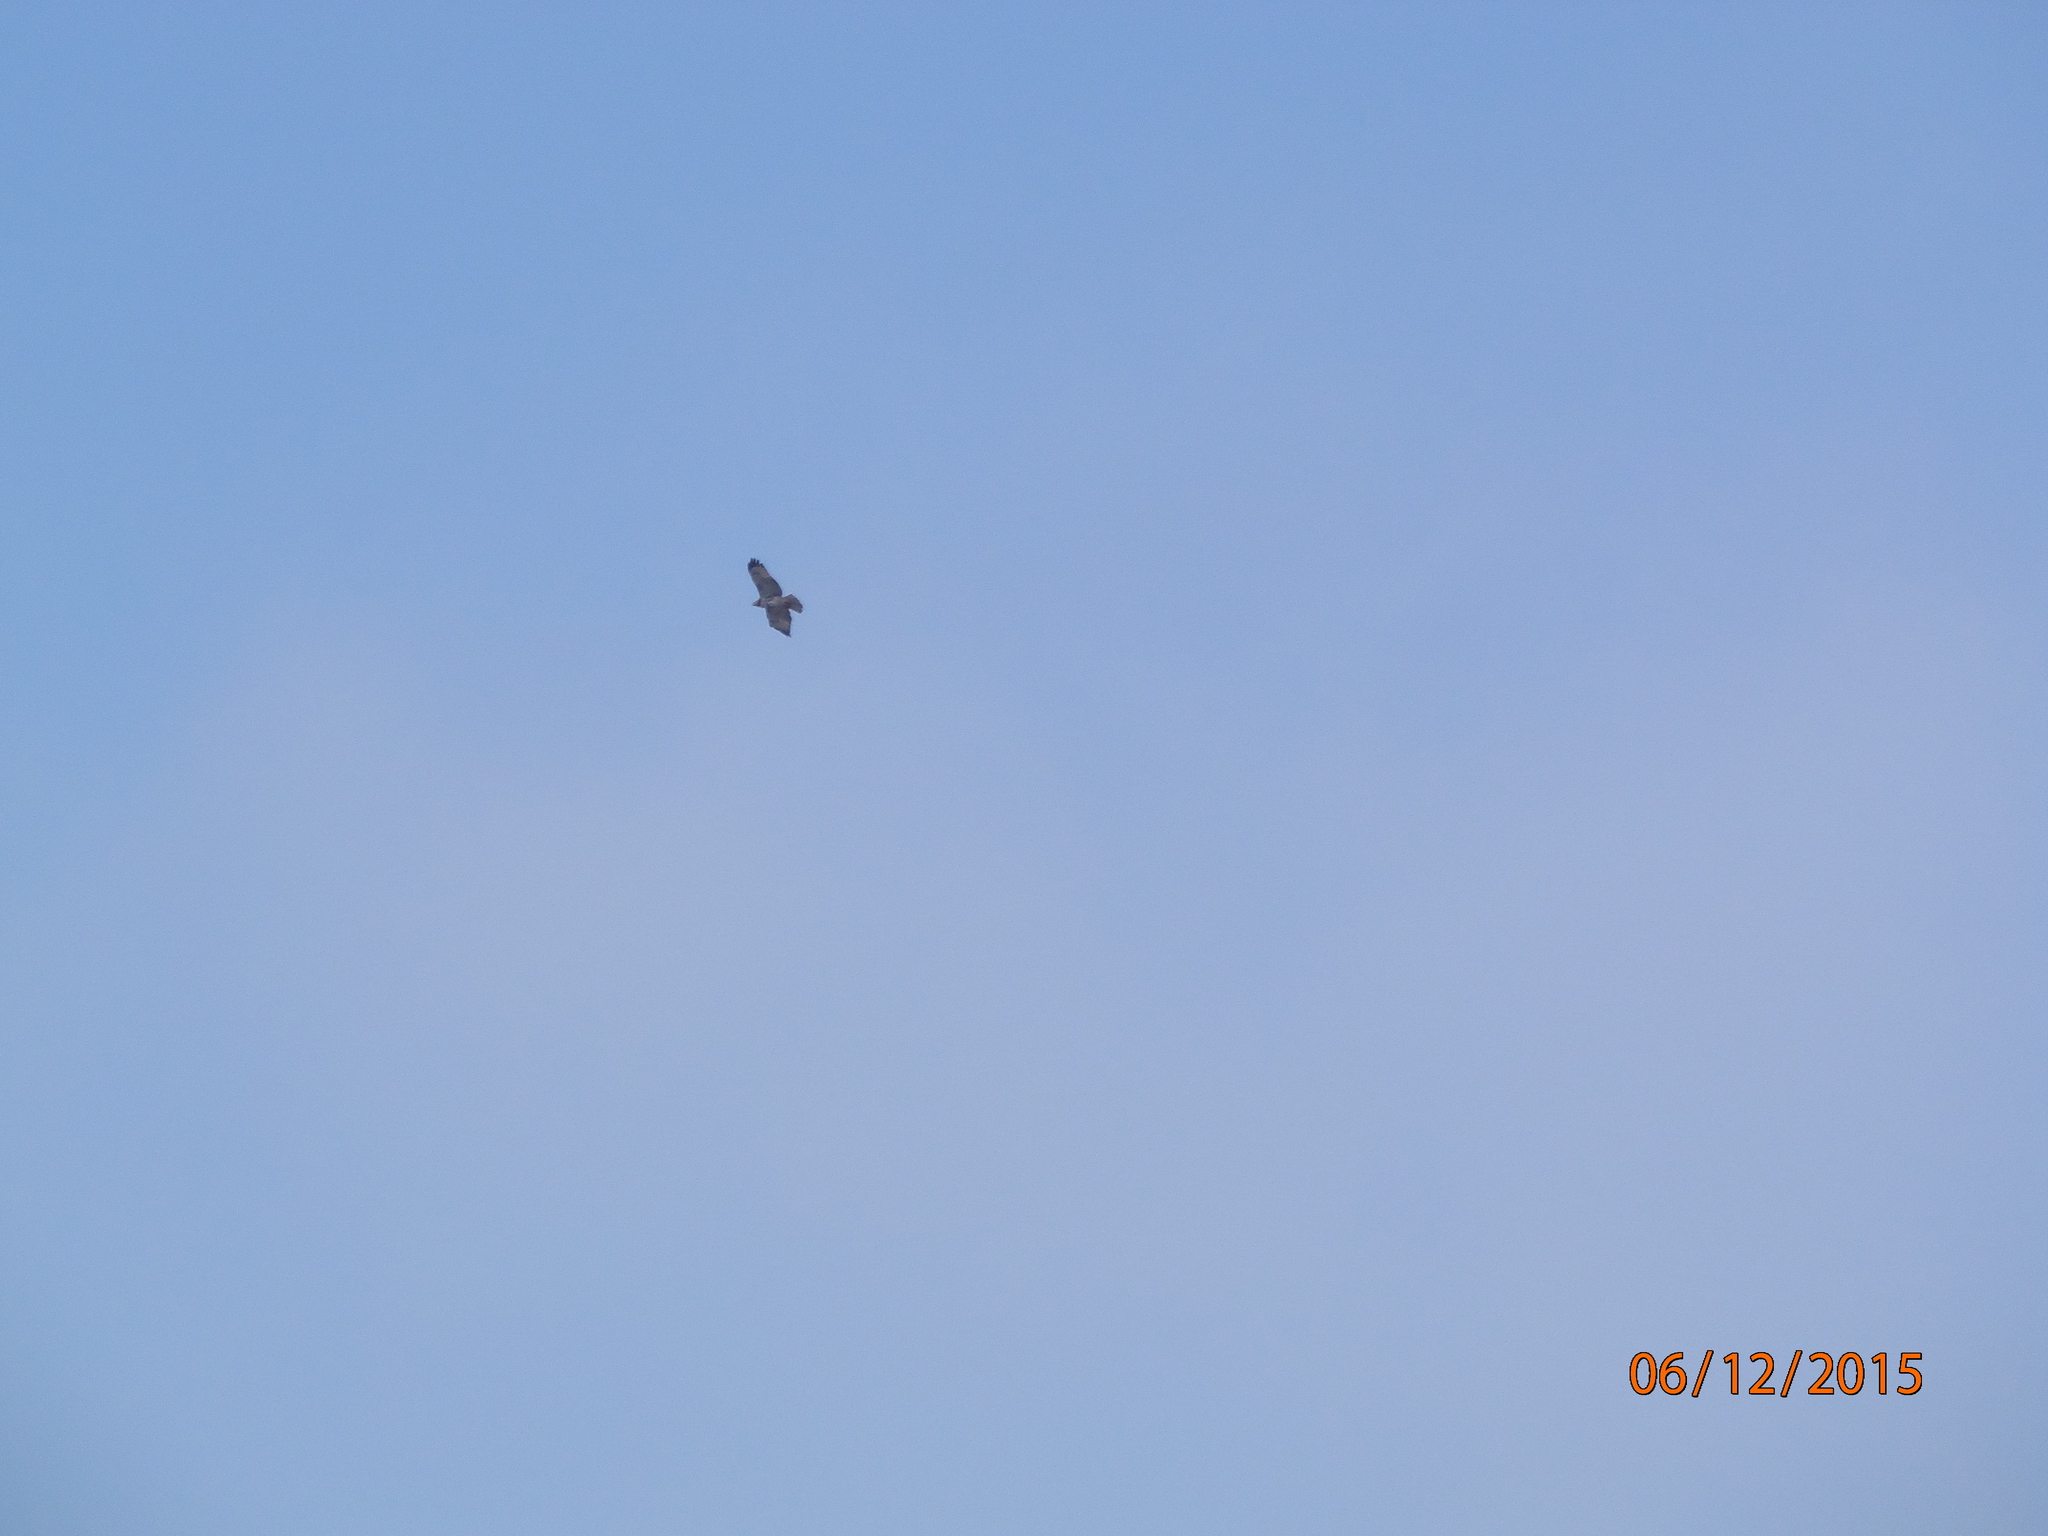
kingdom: Animalia
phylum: Chordata
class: Aves
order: Accipitriformes
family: Accipitridae
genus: Buteo
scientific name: Buteo jamaicensis
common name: Red-tailed hawk
